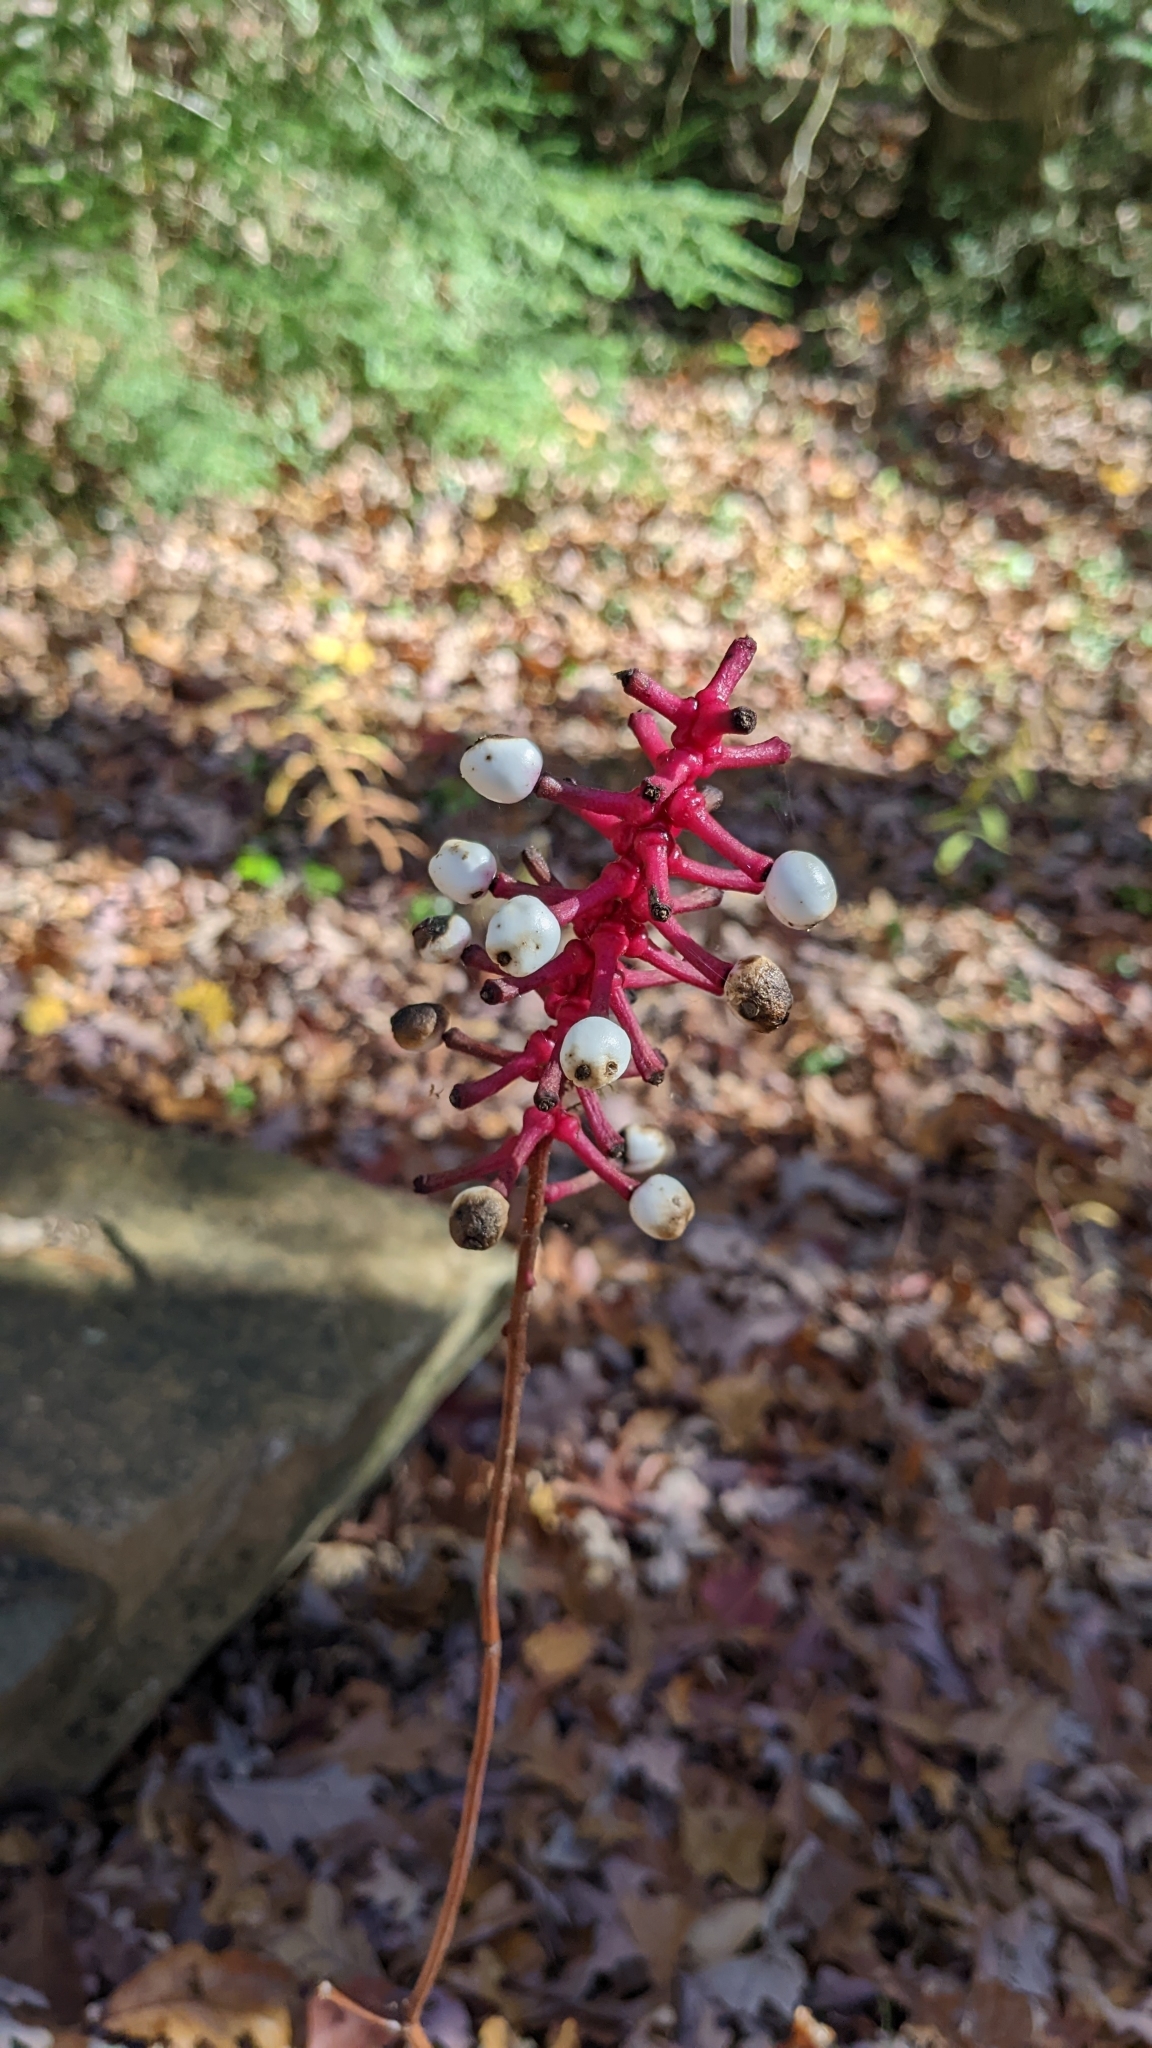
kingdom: Plantae
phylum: Tracheophyta
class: Magnoliopsida
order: Ranunculales
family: Ranunculaceae
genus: Actaea
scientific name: Actaea pachypoda
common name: Doll's-eyes
